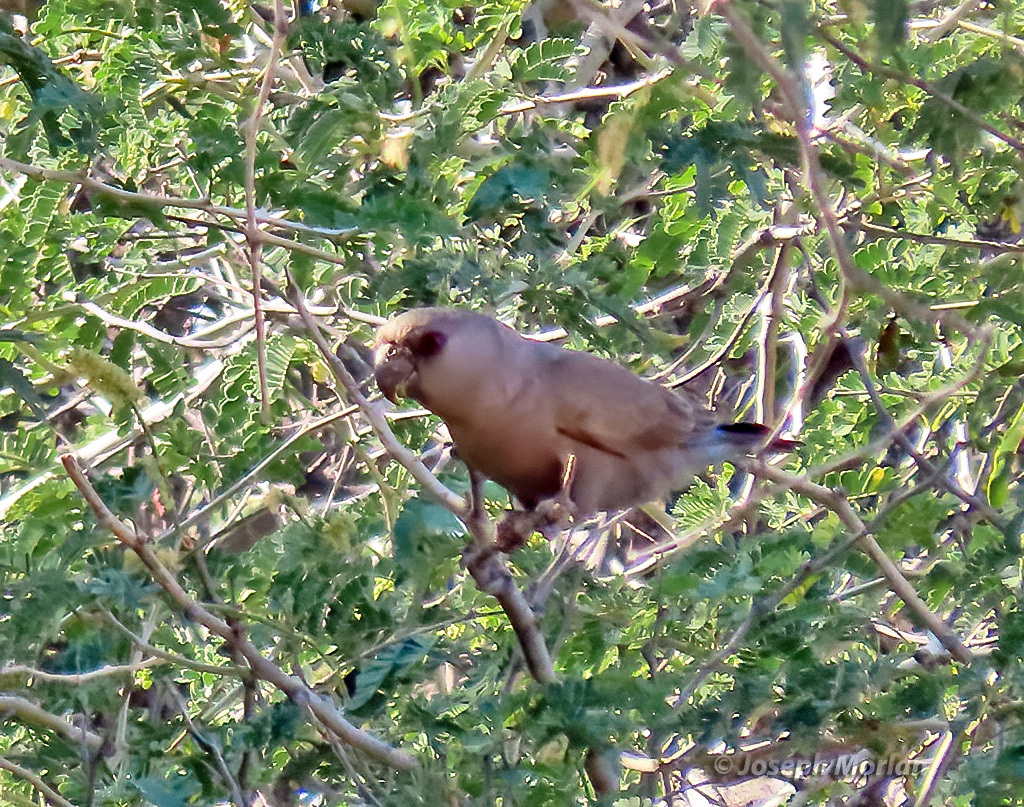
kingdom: Animalia
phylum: Chordata
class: Aves
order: Psittaciformes
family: Psittacidae
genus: Poicephalus
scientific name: Poicephalus rueppellii
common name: Rüppell's parrot
